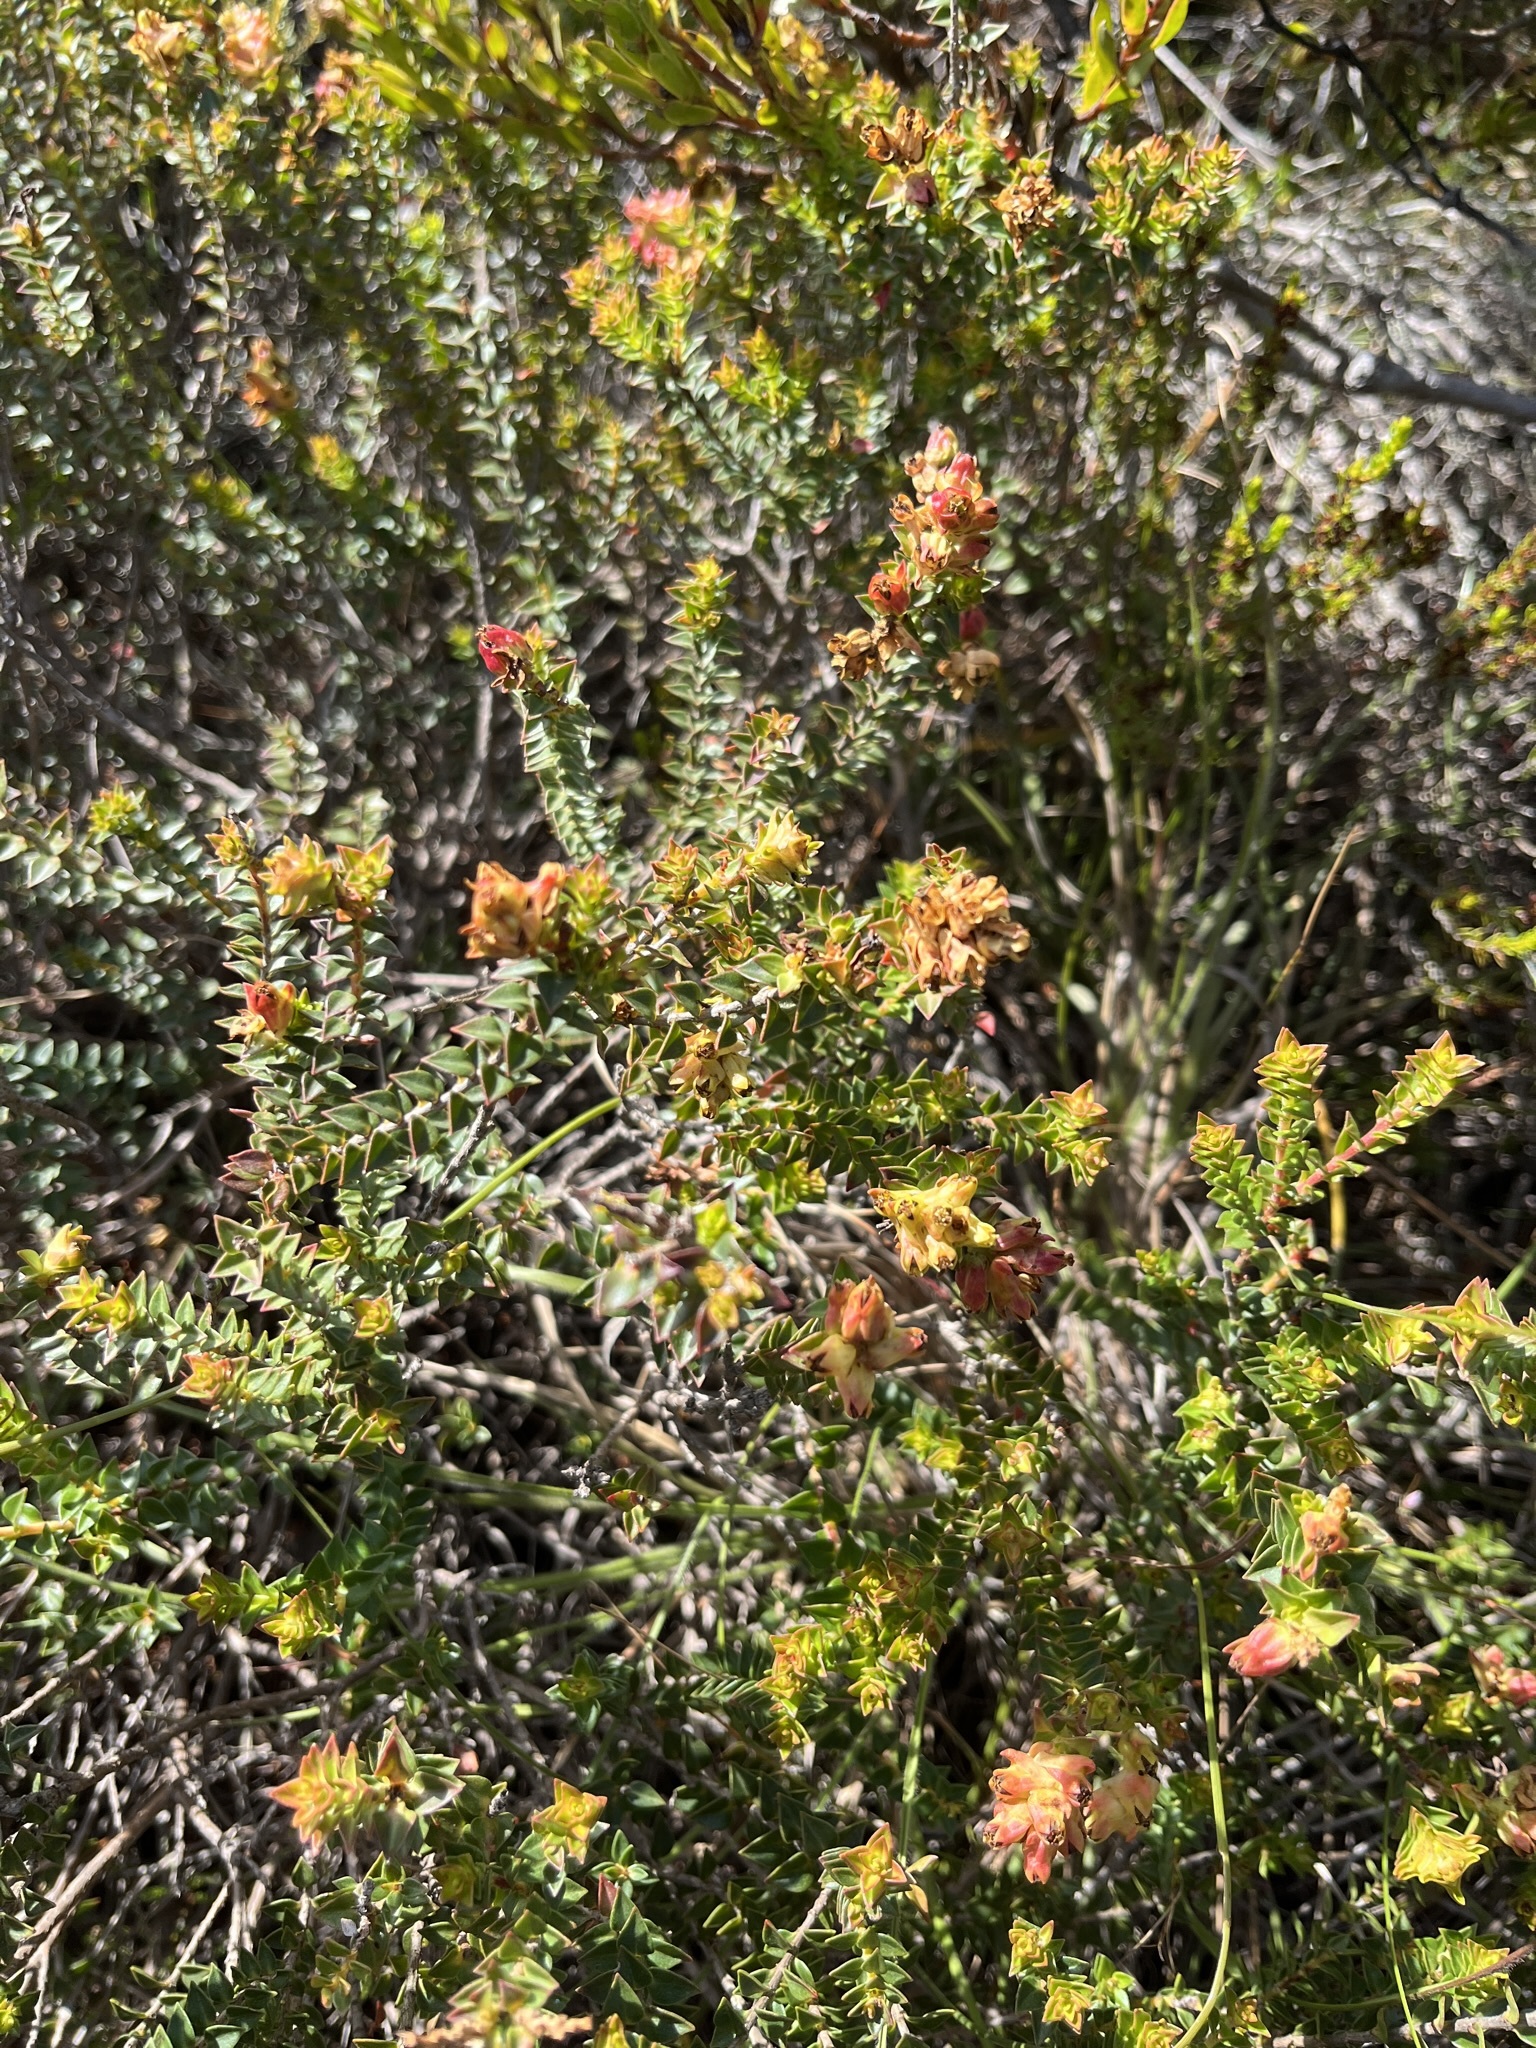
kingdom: Plantae
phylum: Tracheophyta
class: Magnoliopsida
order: Myrtales
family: Penaeaceae
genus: Penaea
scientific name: Penaea mucronata
